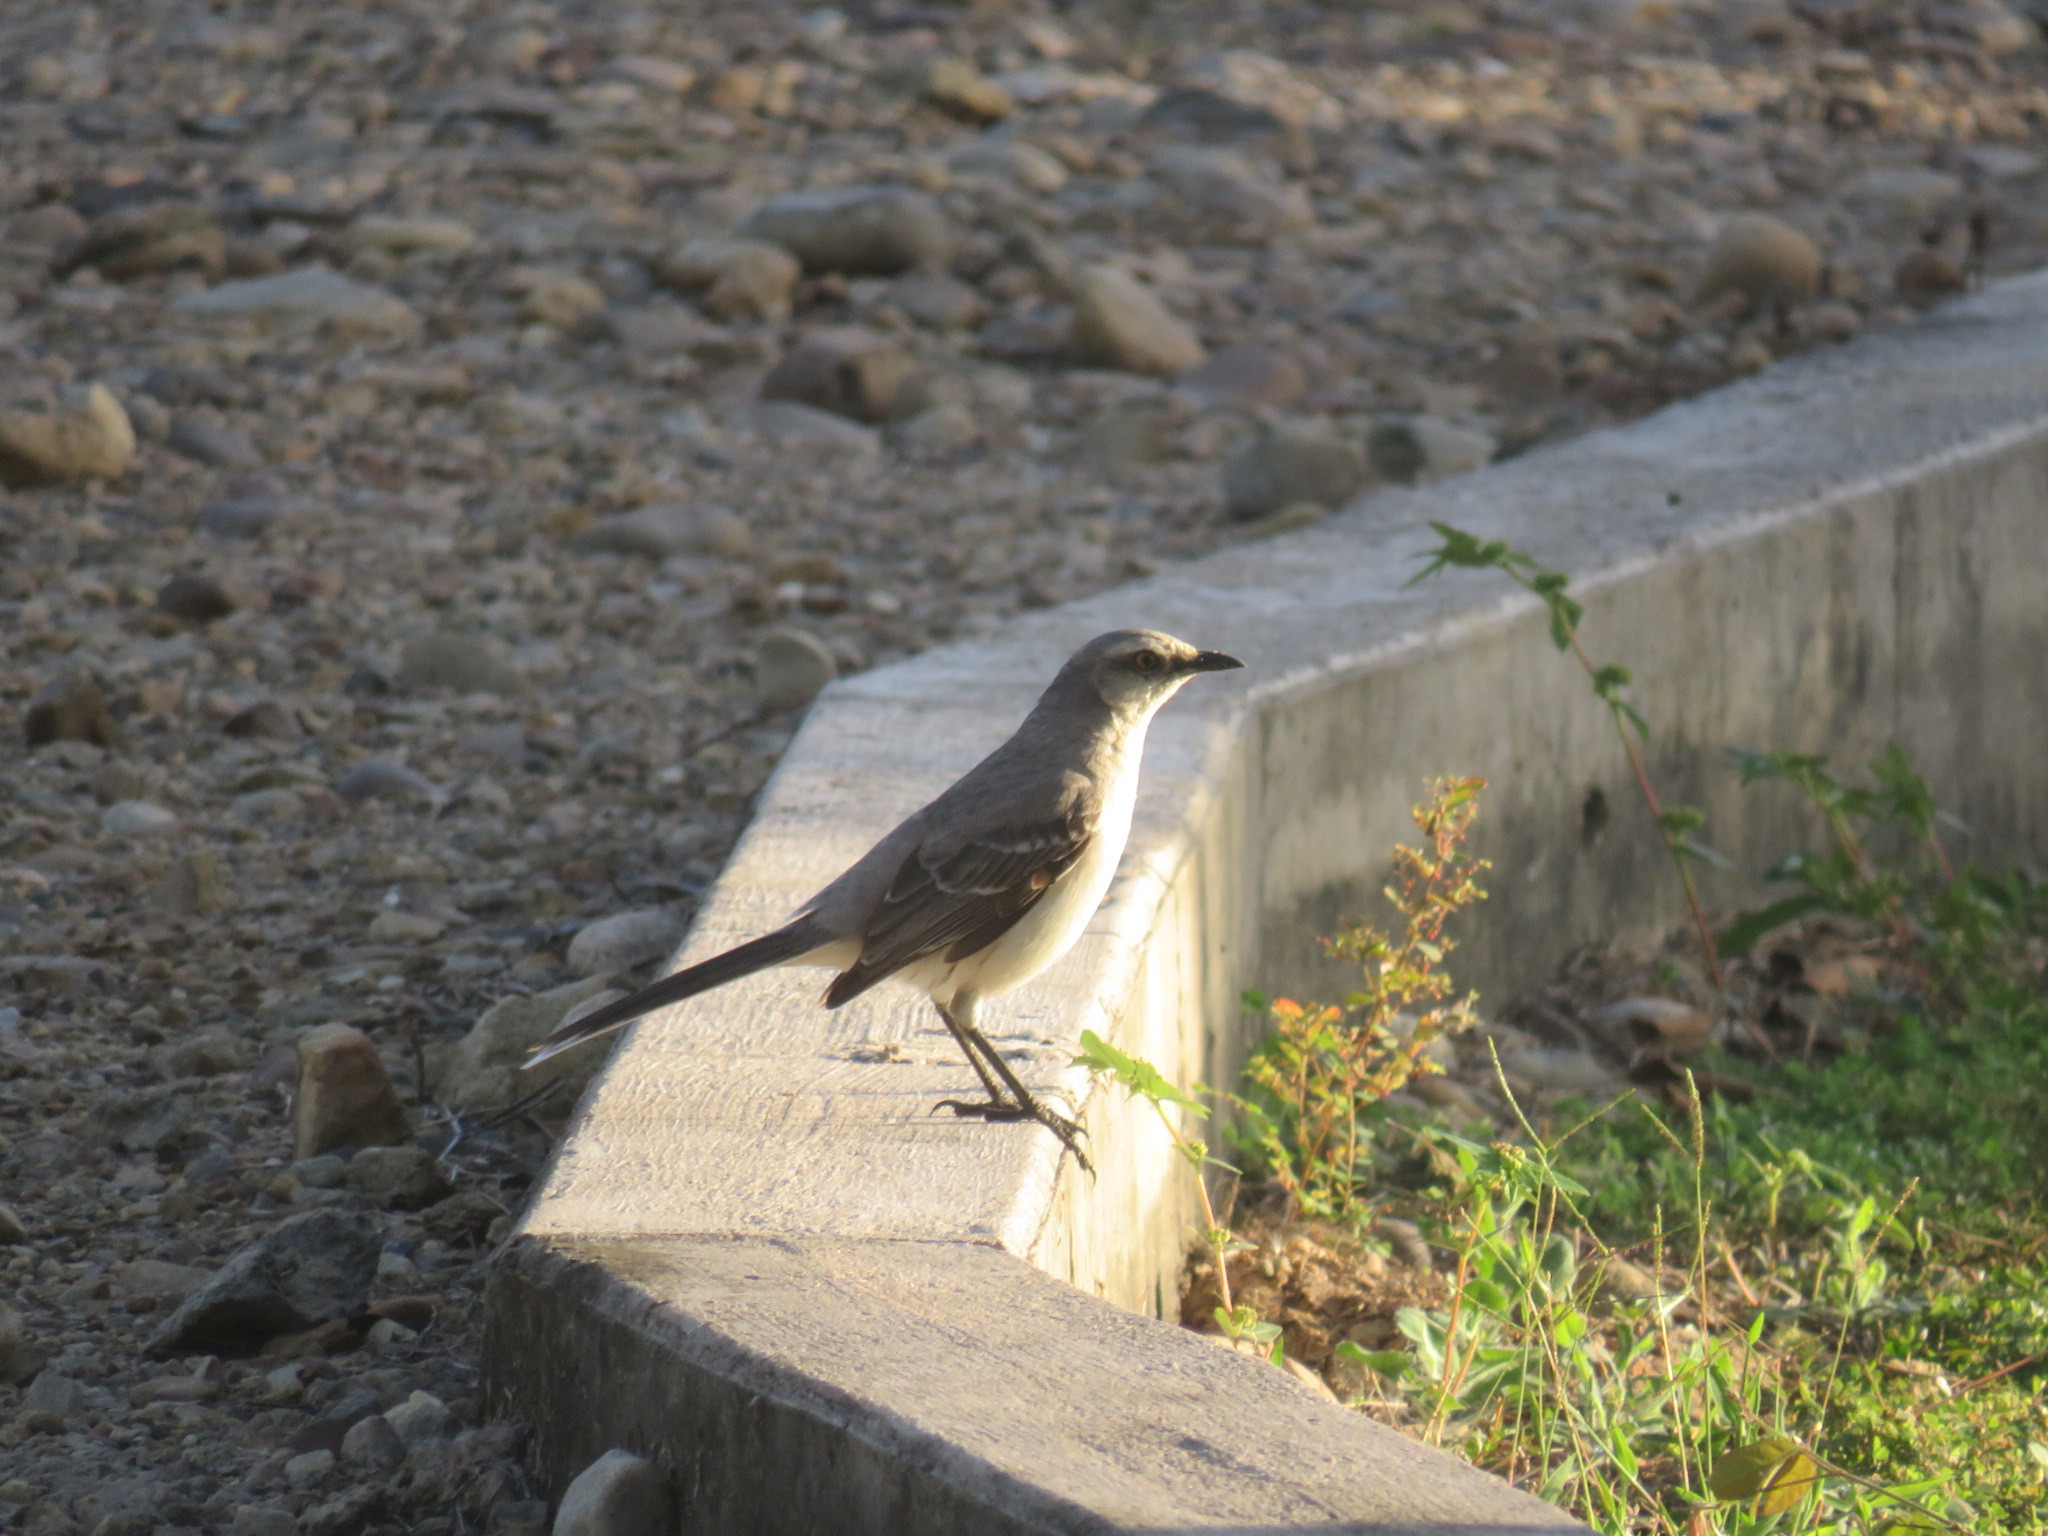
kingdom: Animalia
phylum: Chordata
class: Aves
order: Passeriformes
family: Mimidae
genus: Mimus
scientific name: Mimus gilvus
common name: Tropical mockingbird
